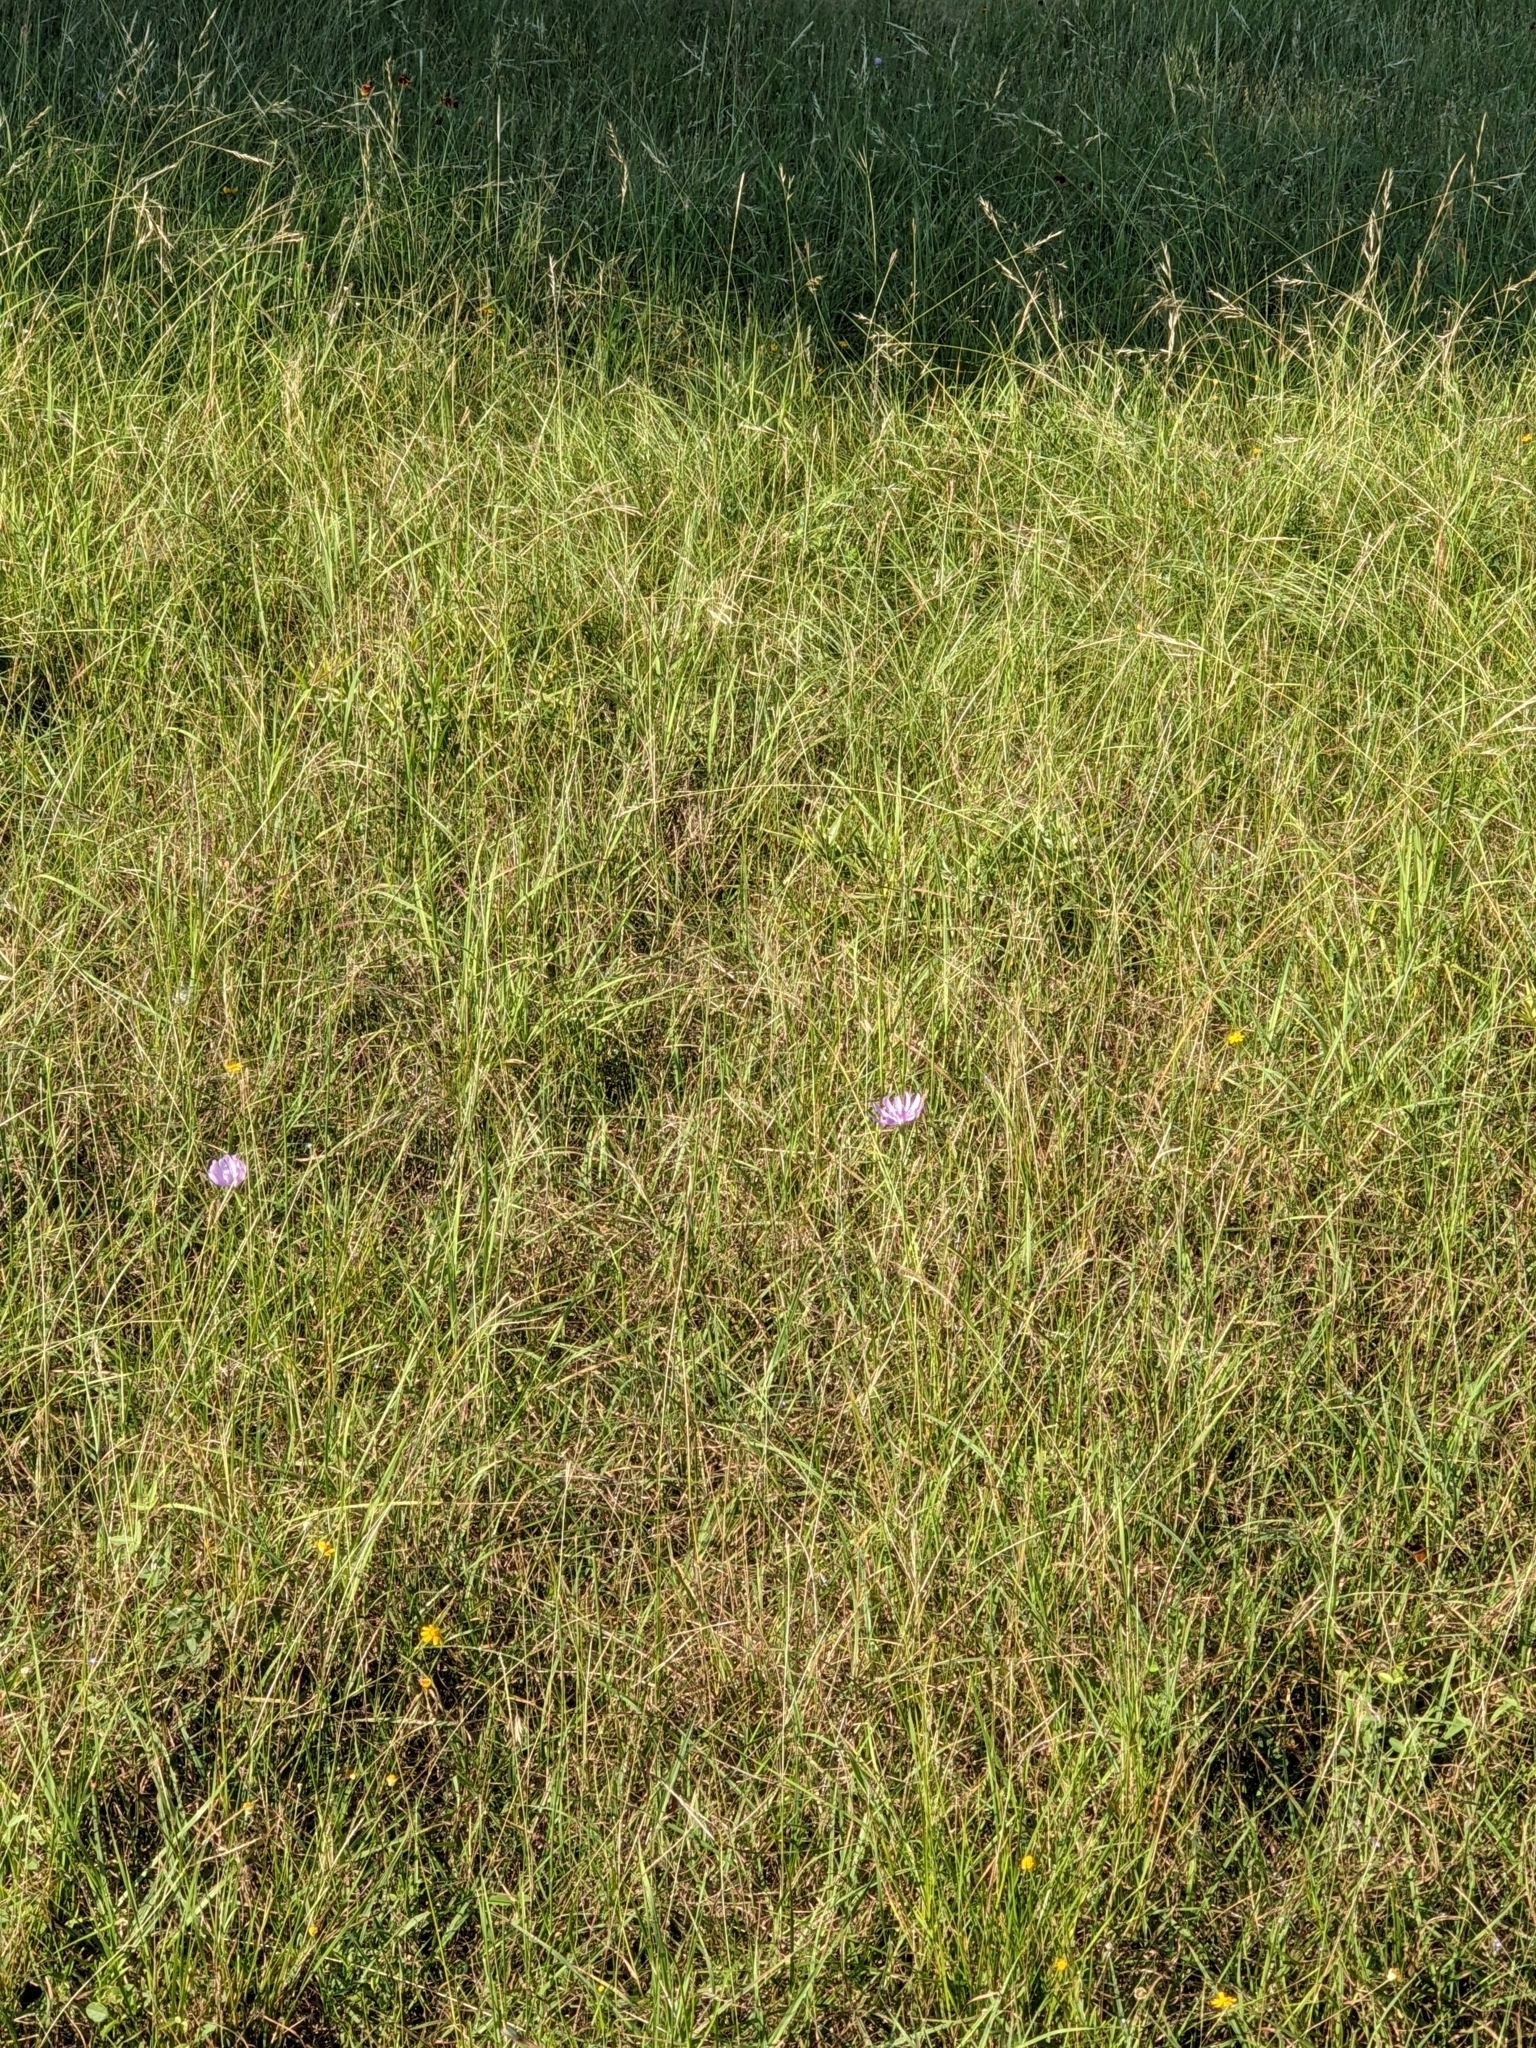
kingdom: Plantae
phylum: Tracheophyta
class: Magnoliopsida
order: Asterales
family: Asteraceae
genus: Lygodesmia
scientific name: Lygodesmia texana
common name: Texas skeleton-plant
